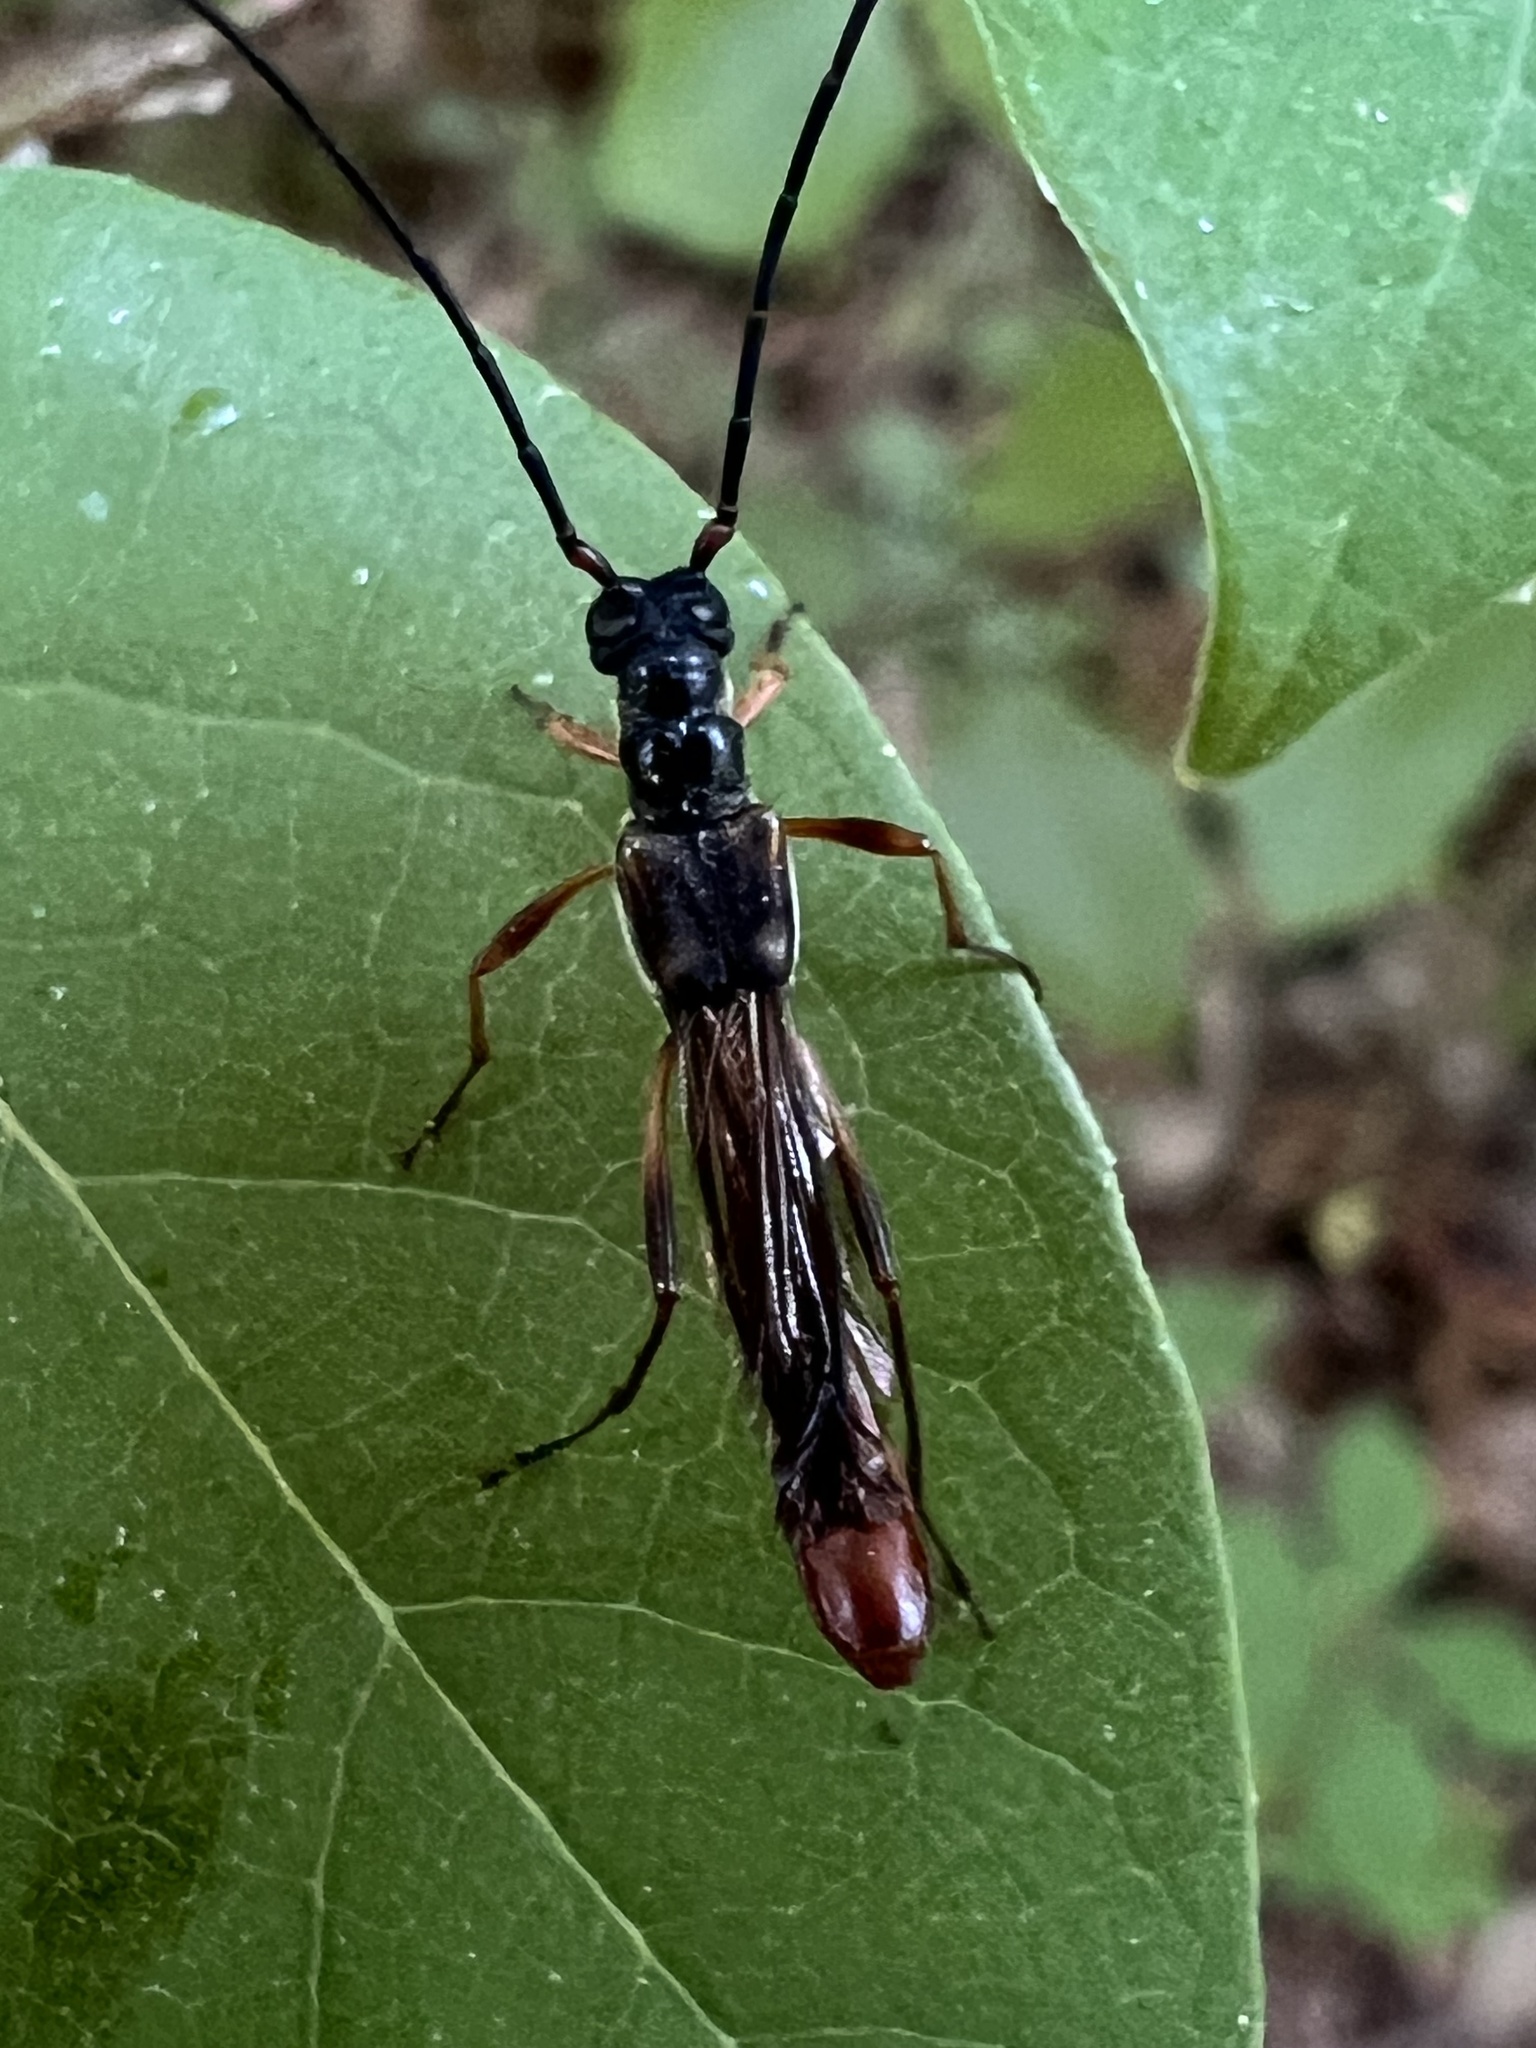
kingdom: Animalia
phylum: Arthropoda
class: Insecta
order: Coleoptera
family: Cerambycidae
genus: Necydalis
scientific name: Necydalis mellita
